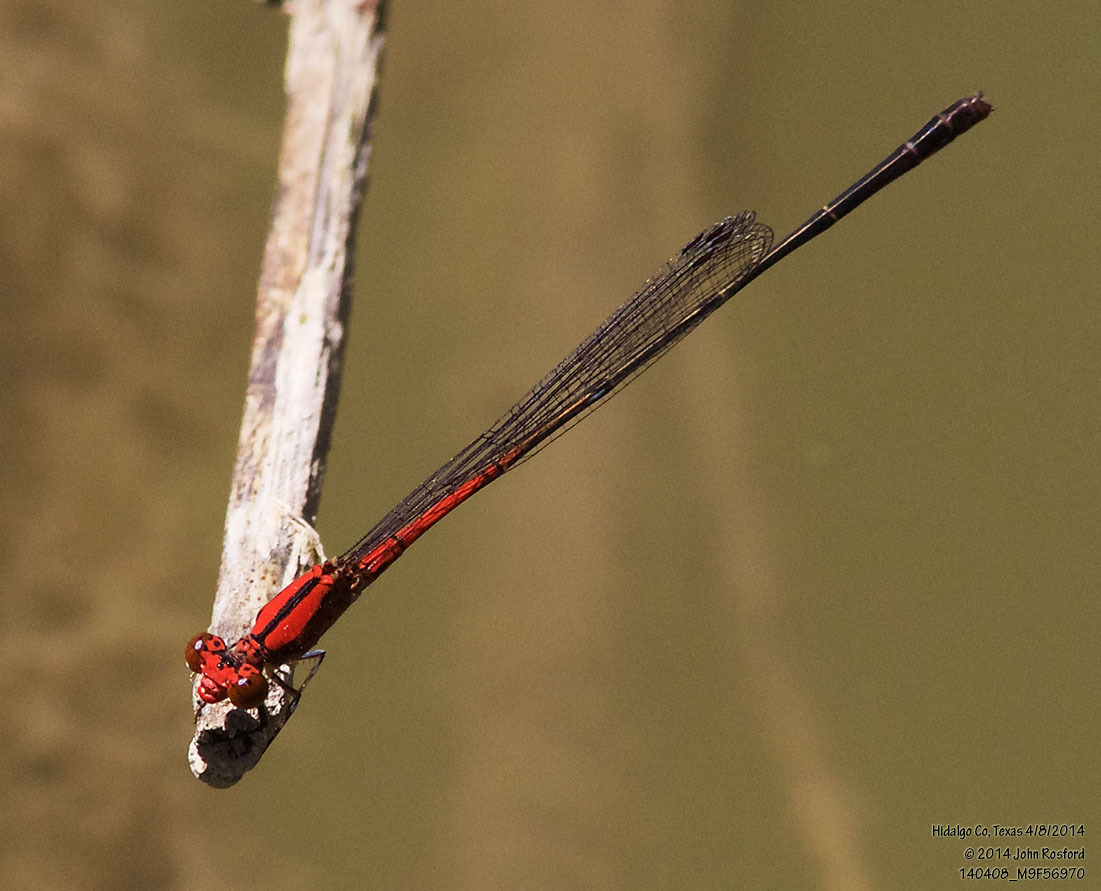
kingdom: Animalia
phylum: Arthropoda
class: Insecta
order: Odonata
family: Coenagrionidae
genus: Neoneura
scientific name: Neoneura amelia
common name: Amelia’s threadtail
